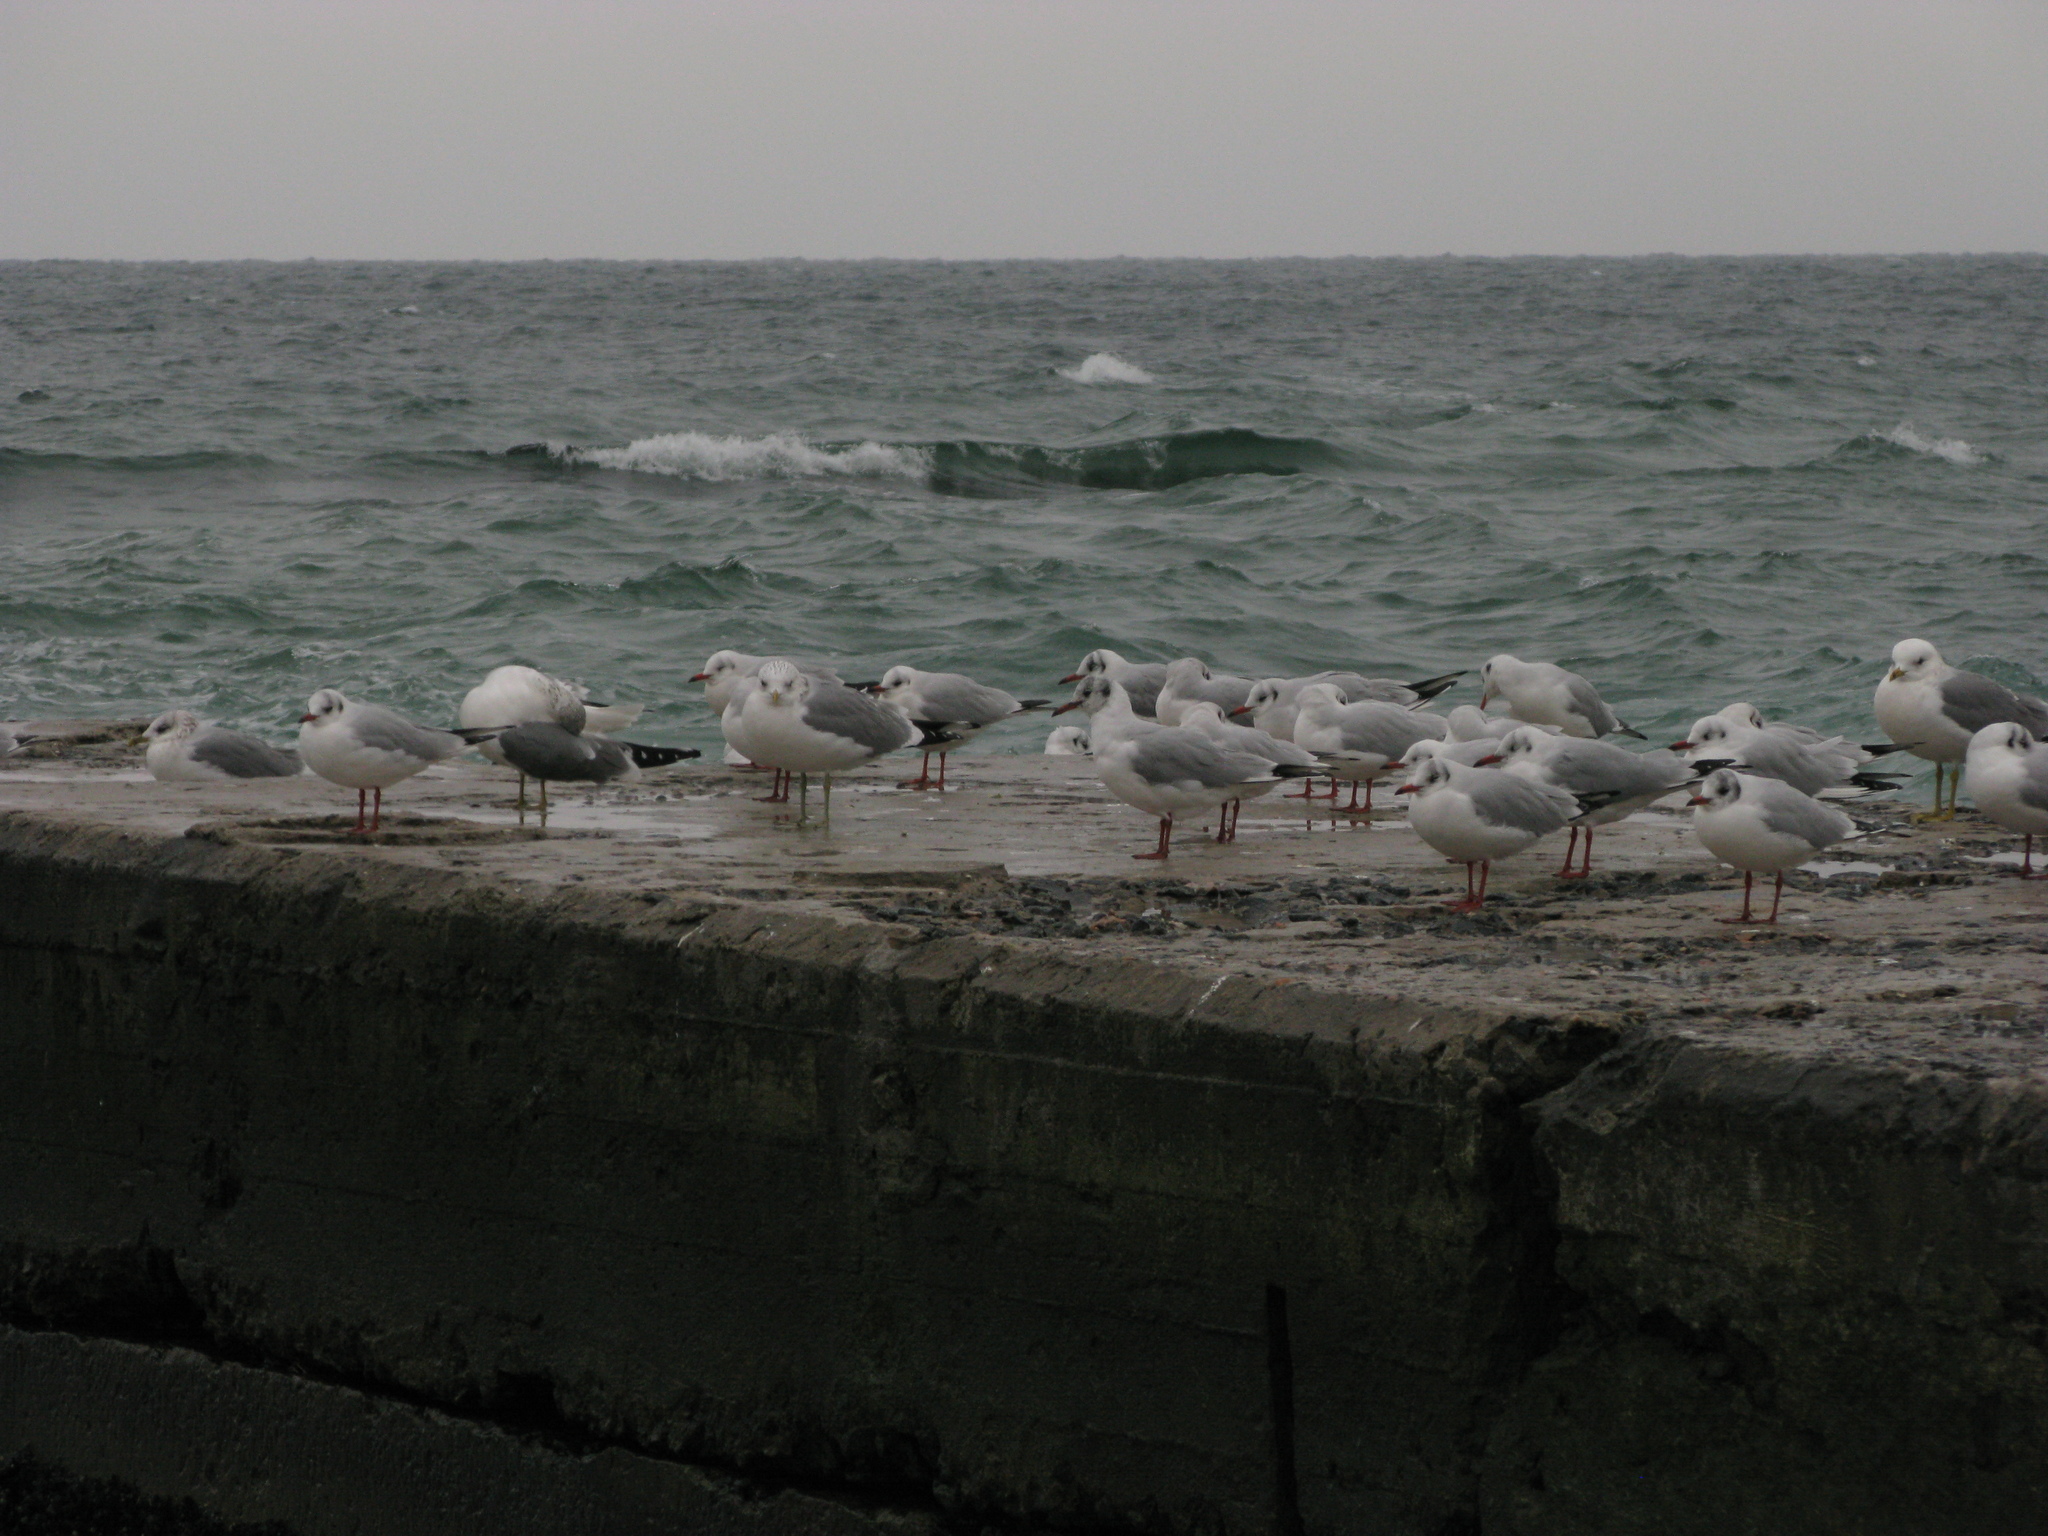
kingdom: Animalia
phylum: Chordata
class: Aves
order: Charadriiformes
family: Laridae
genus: Chroicocephalus
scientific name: Chroicocephalus ridibundus
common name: Black-headed gull
